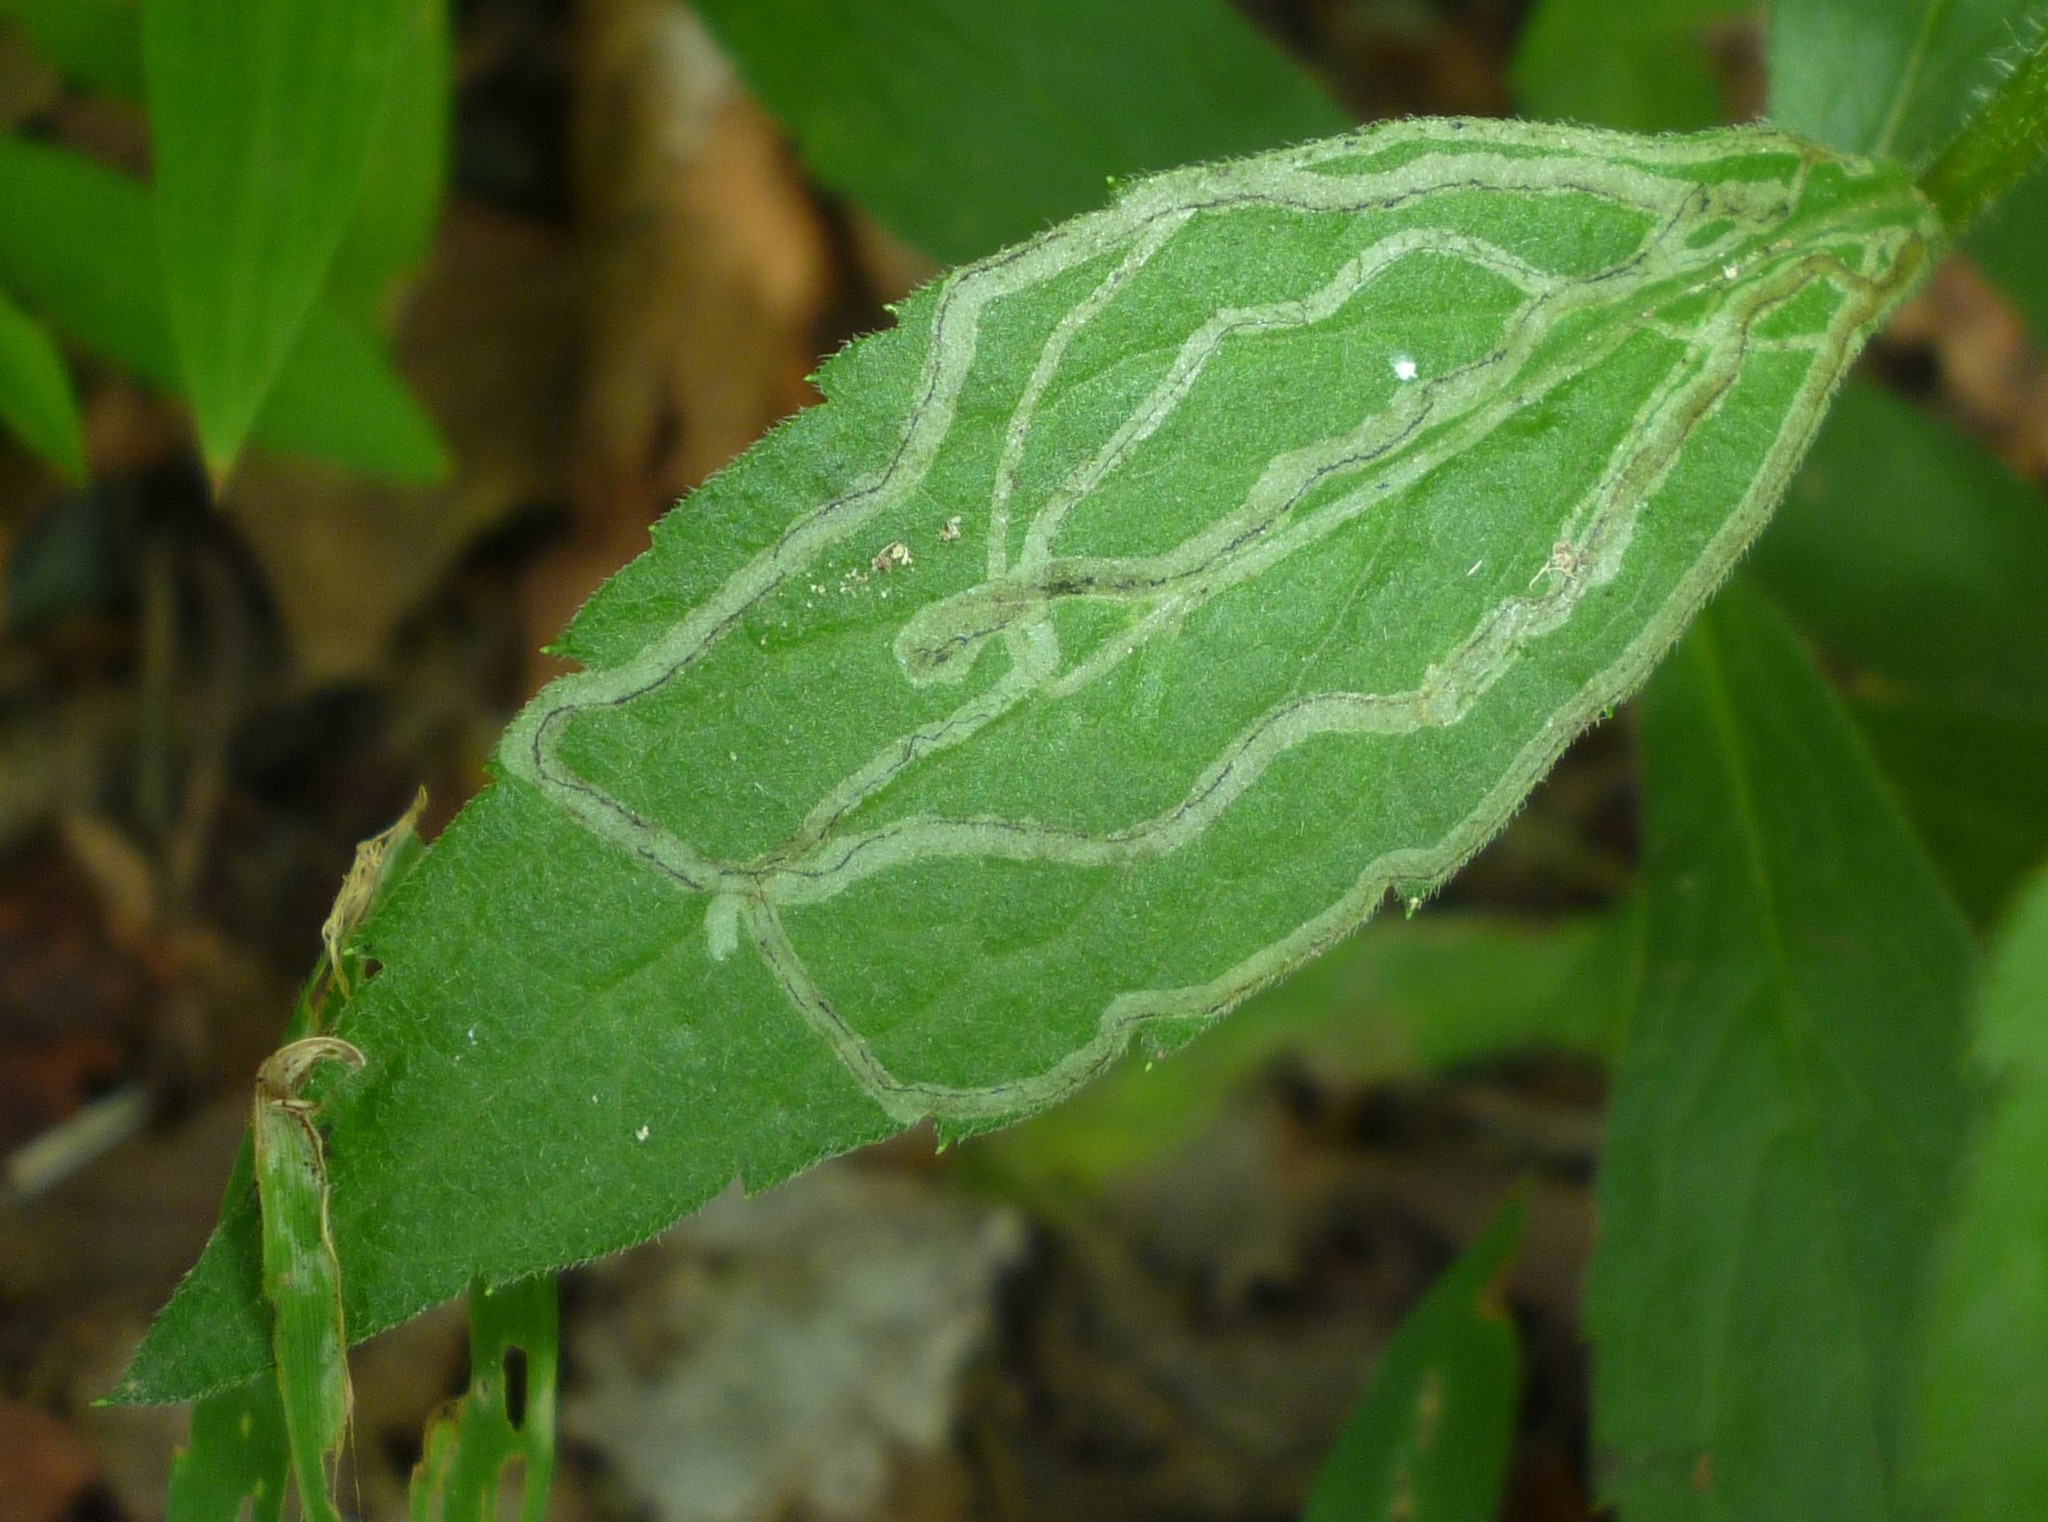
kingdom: Animalia
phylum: Arthropoda
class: Insecta
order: Diptera
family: Agromyzidae
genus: Ophiomyia
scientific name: Ophiomyia maura
